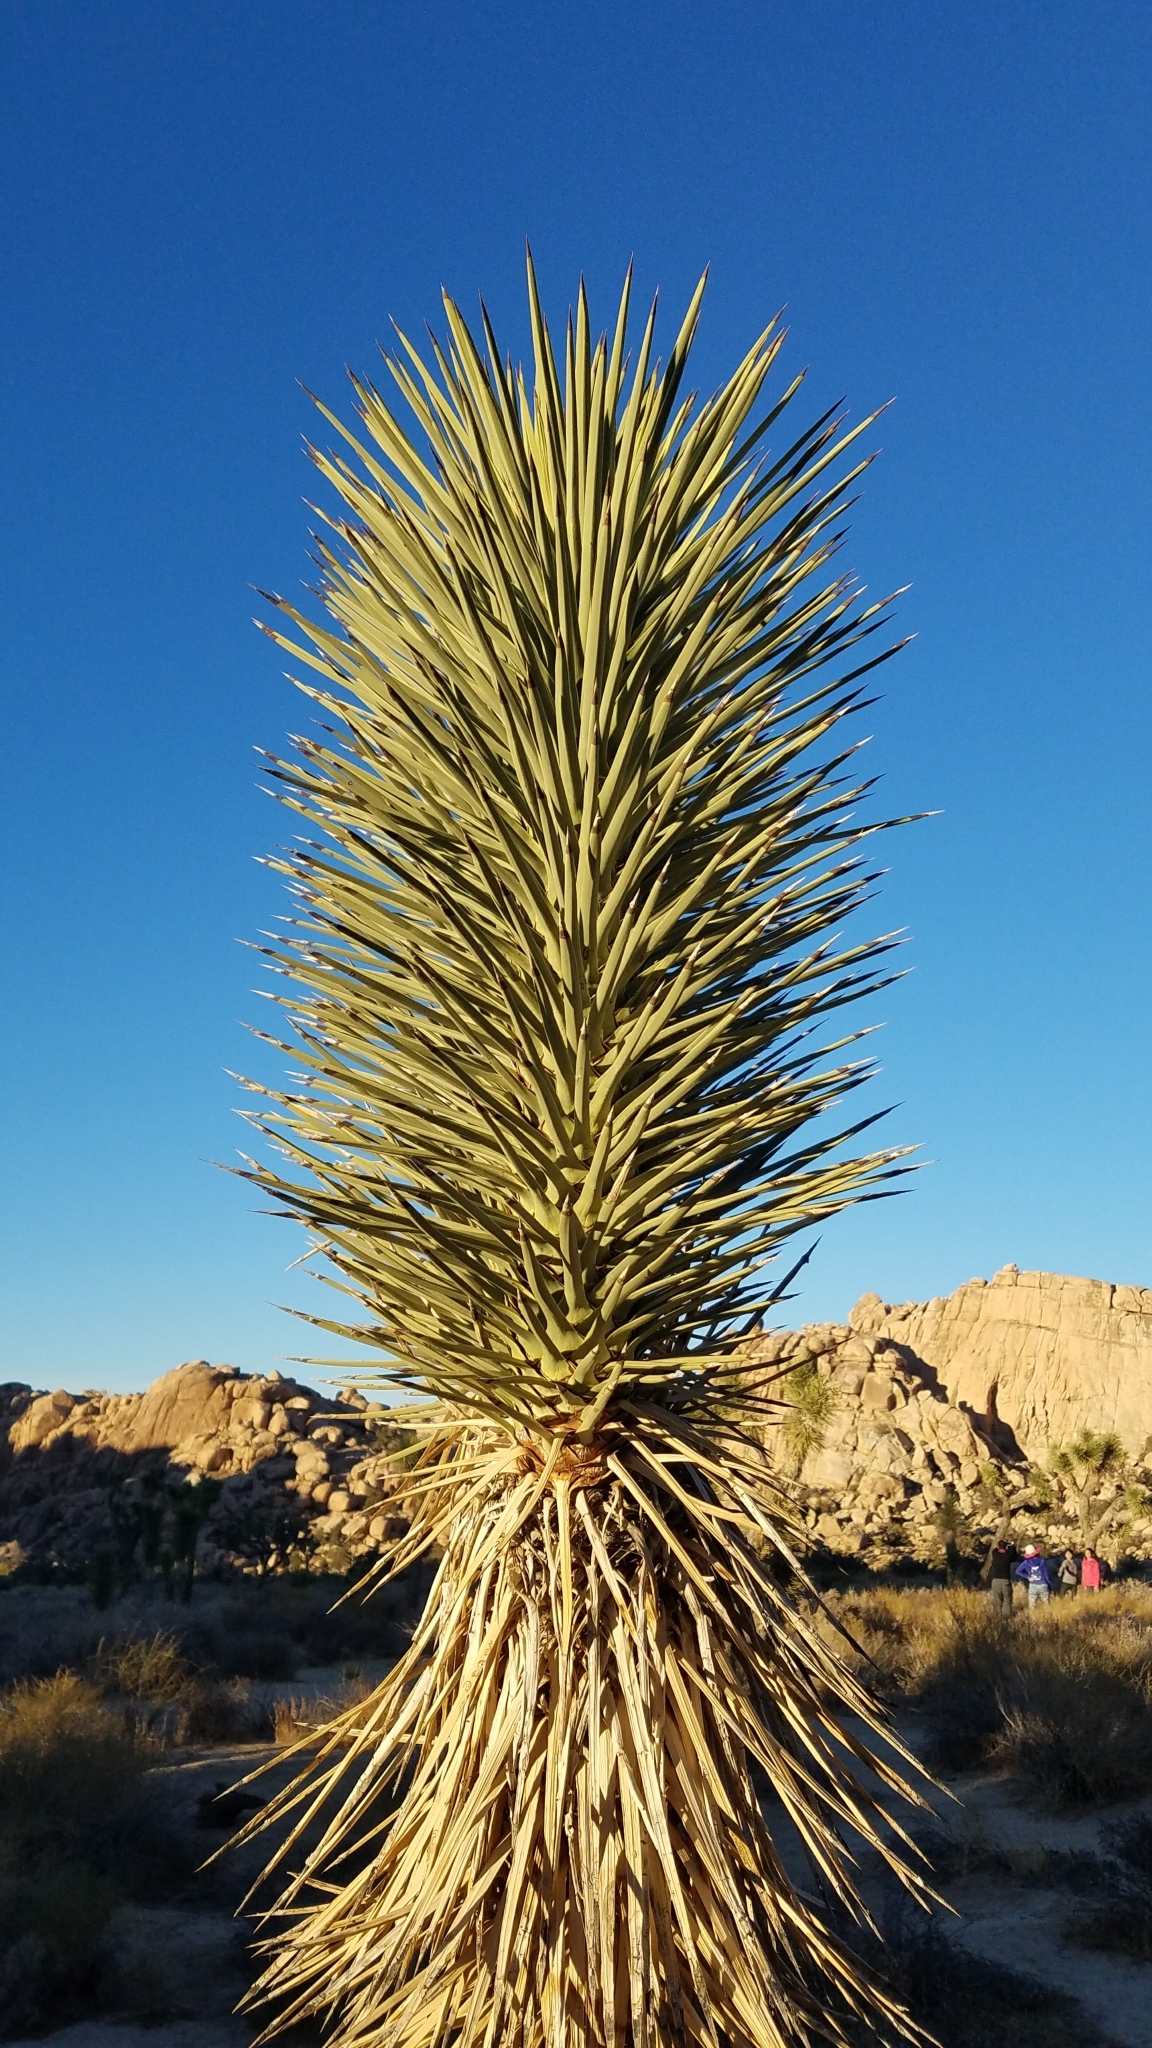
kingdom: Plantae
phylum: Tracheophyta
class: Liliopsida
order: Asparagales
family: Asparagaceae
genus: Yucca
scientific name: Yucca brevifolia
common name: Joshua tree
